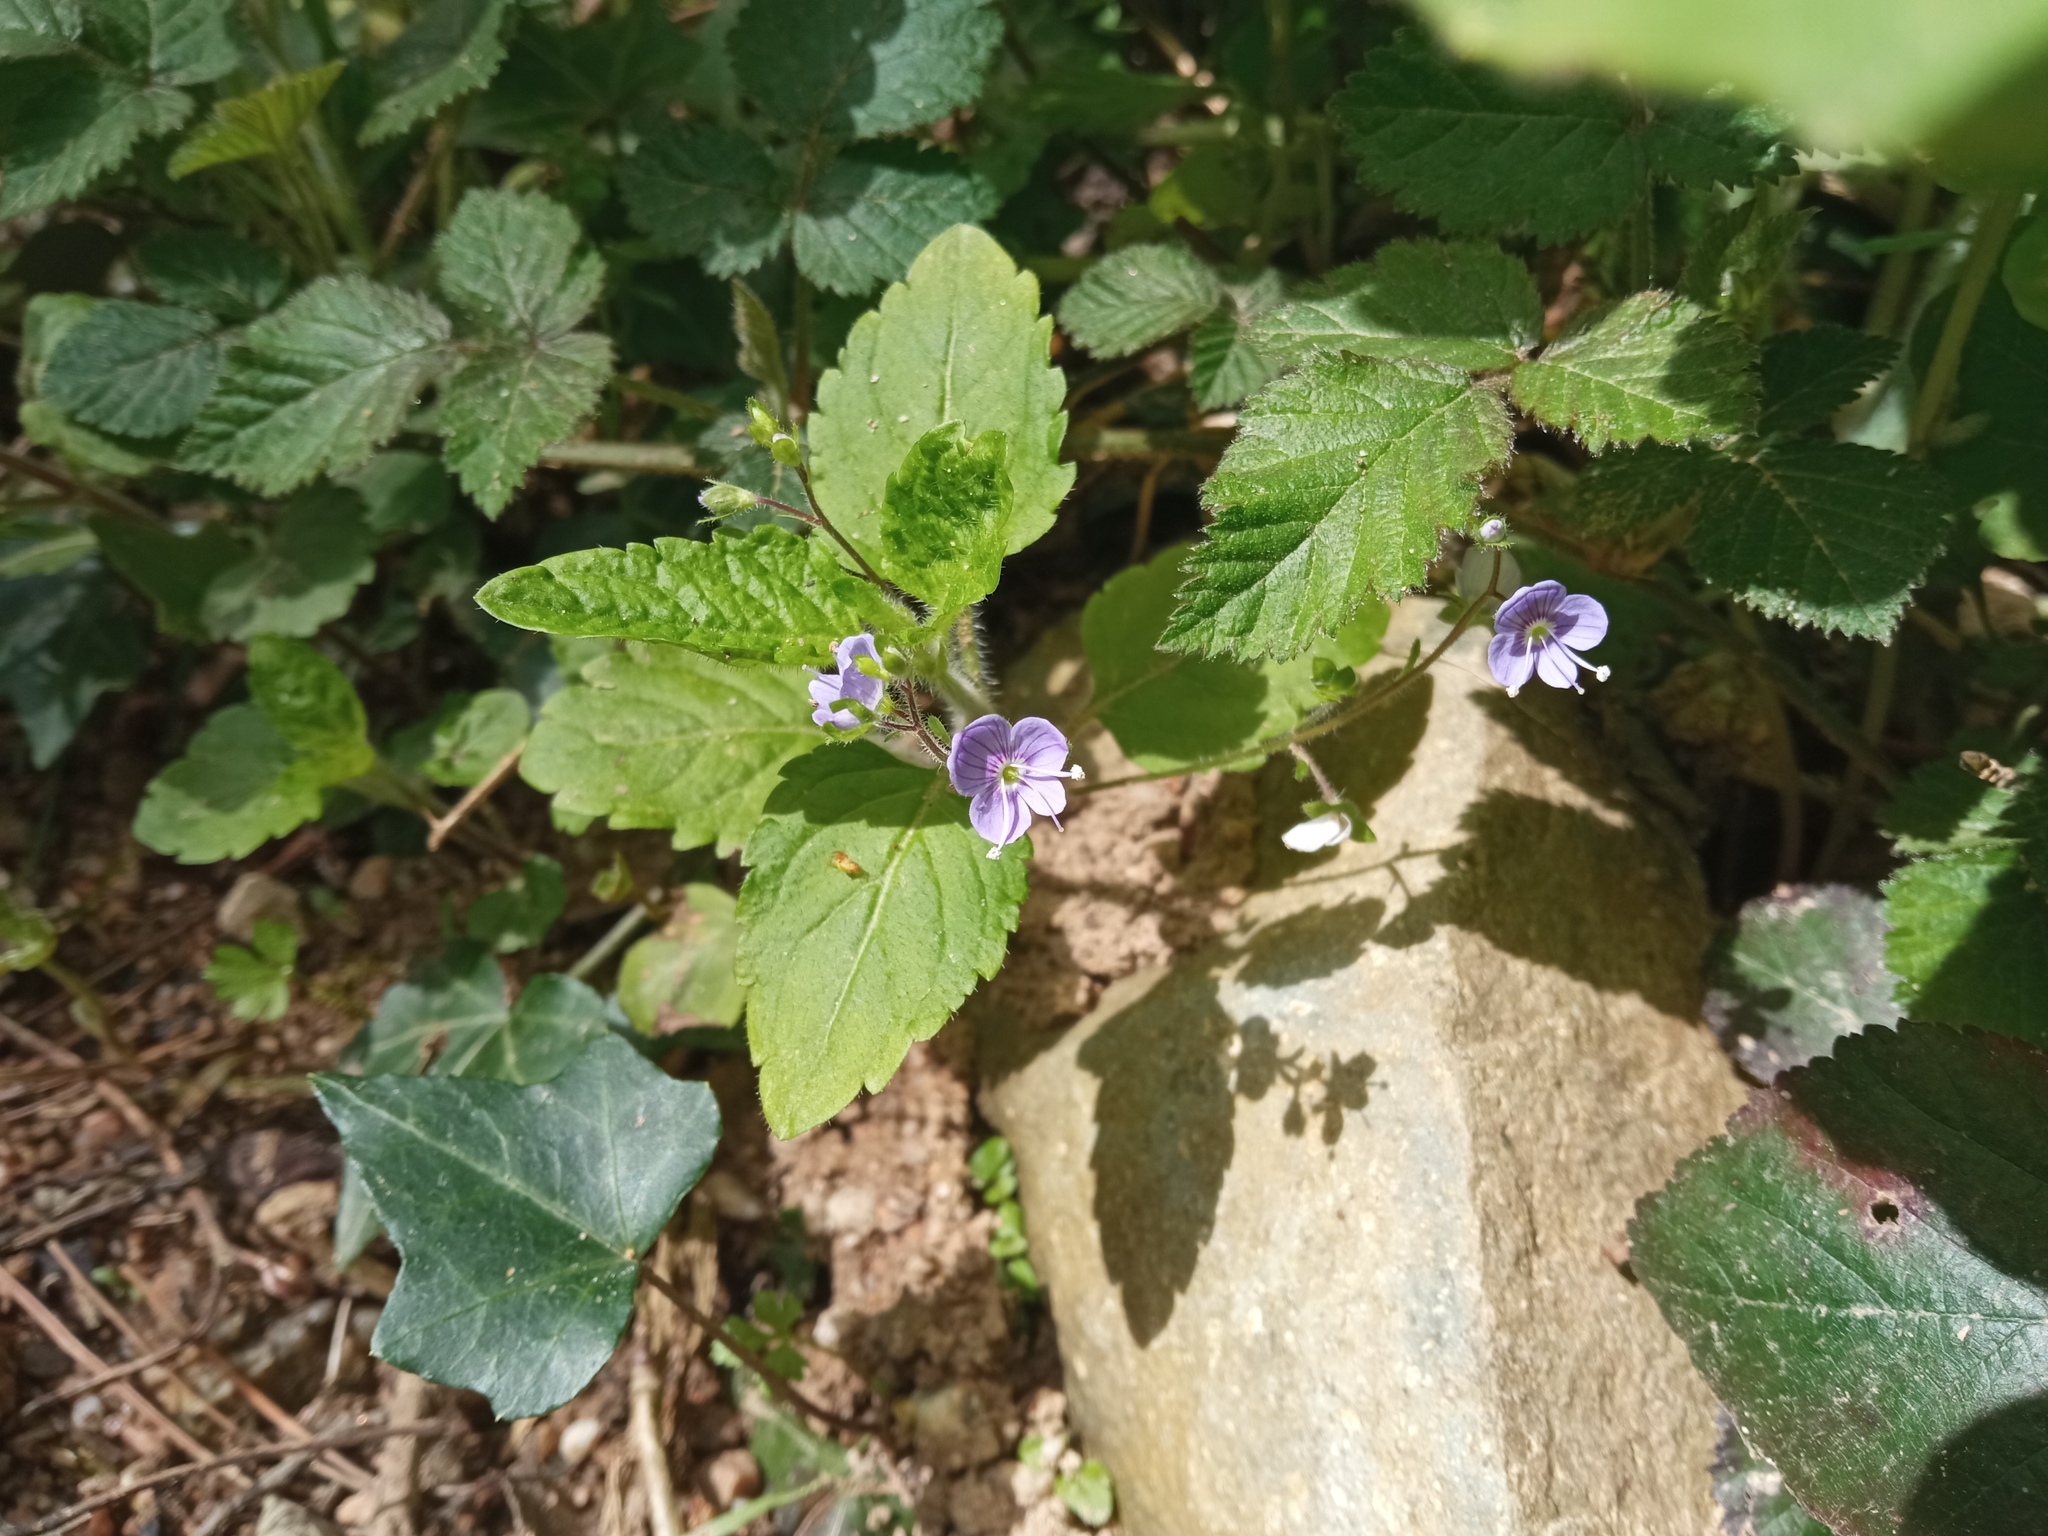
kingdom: Plantae
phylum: Tracheophyta
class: Magnoliopsida
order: Lamiales
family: Plantaginaceae
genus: Veronica
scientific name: Veronica montana
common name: Wood speedwell
